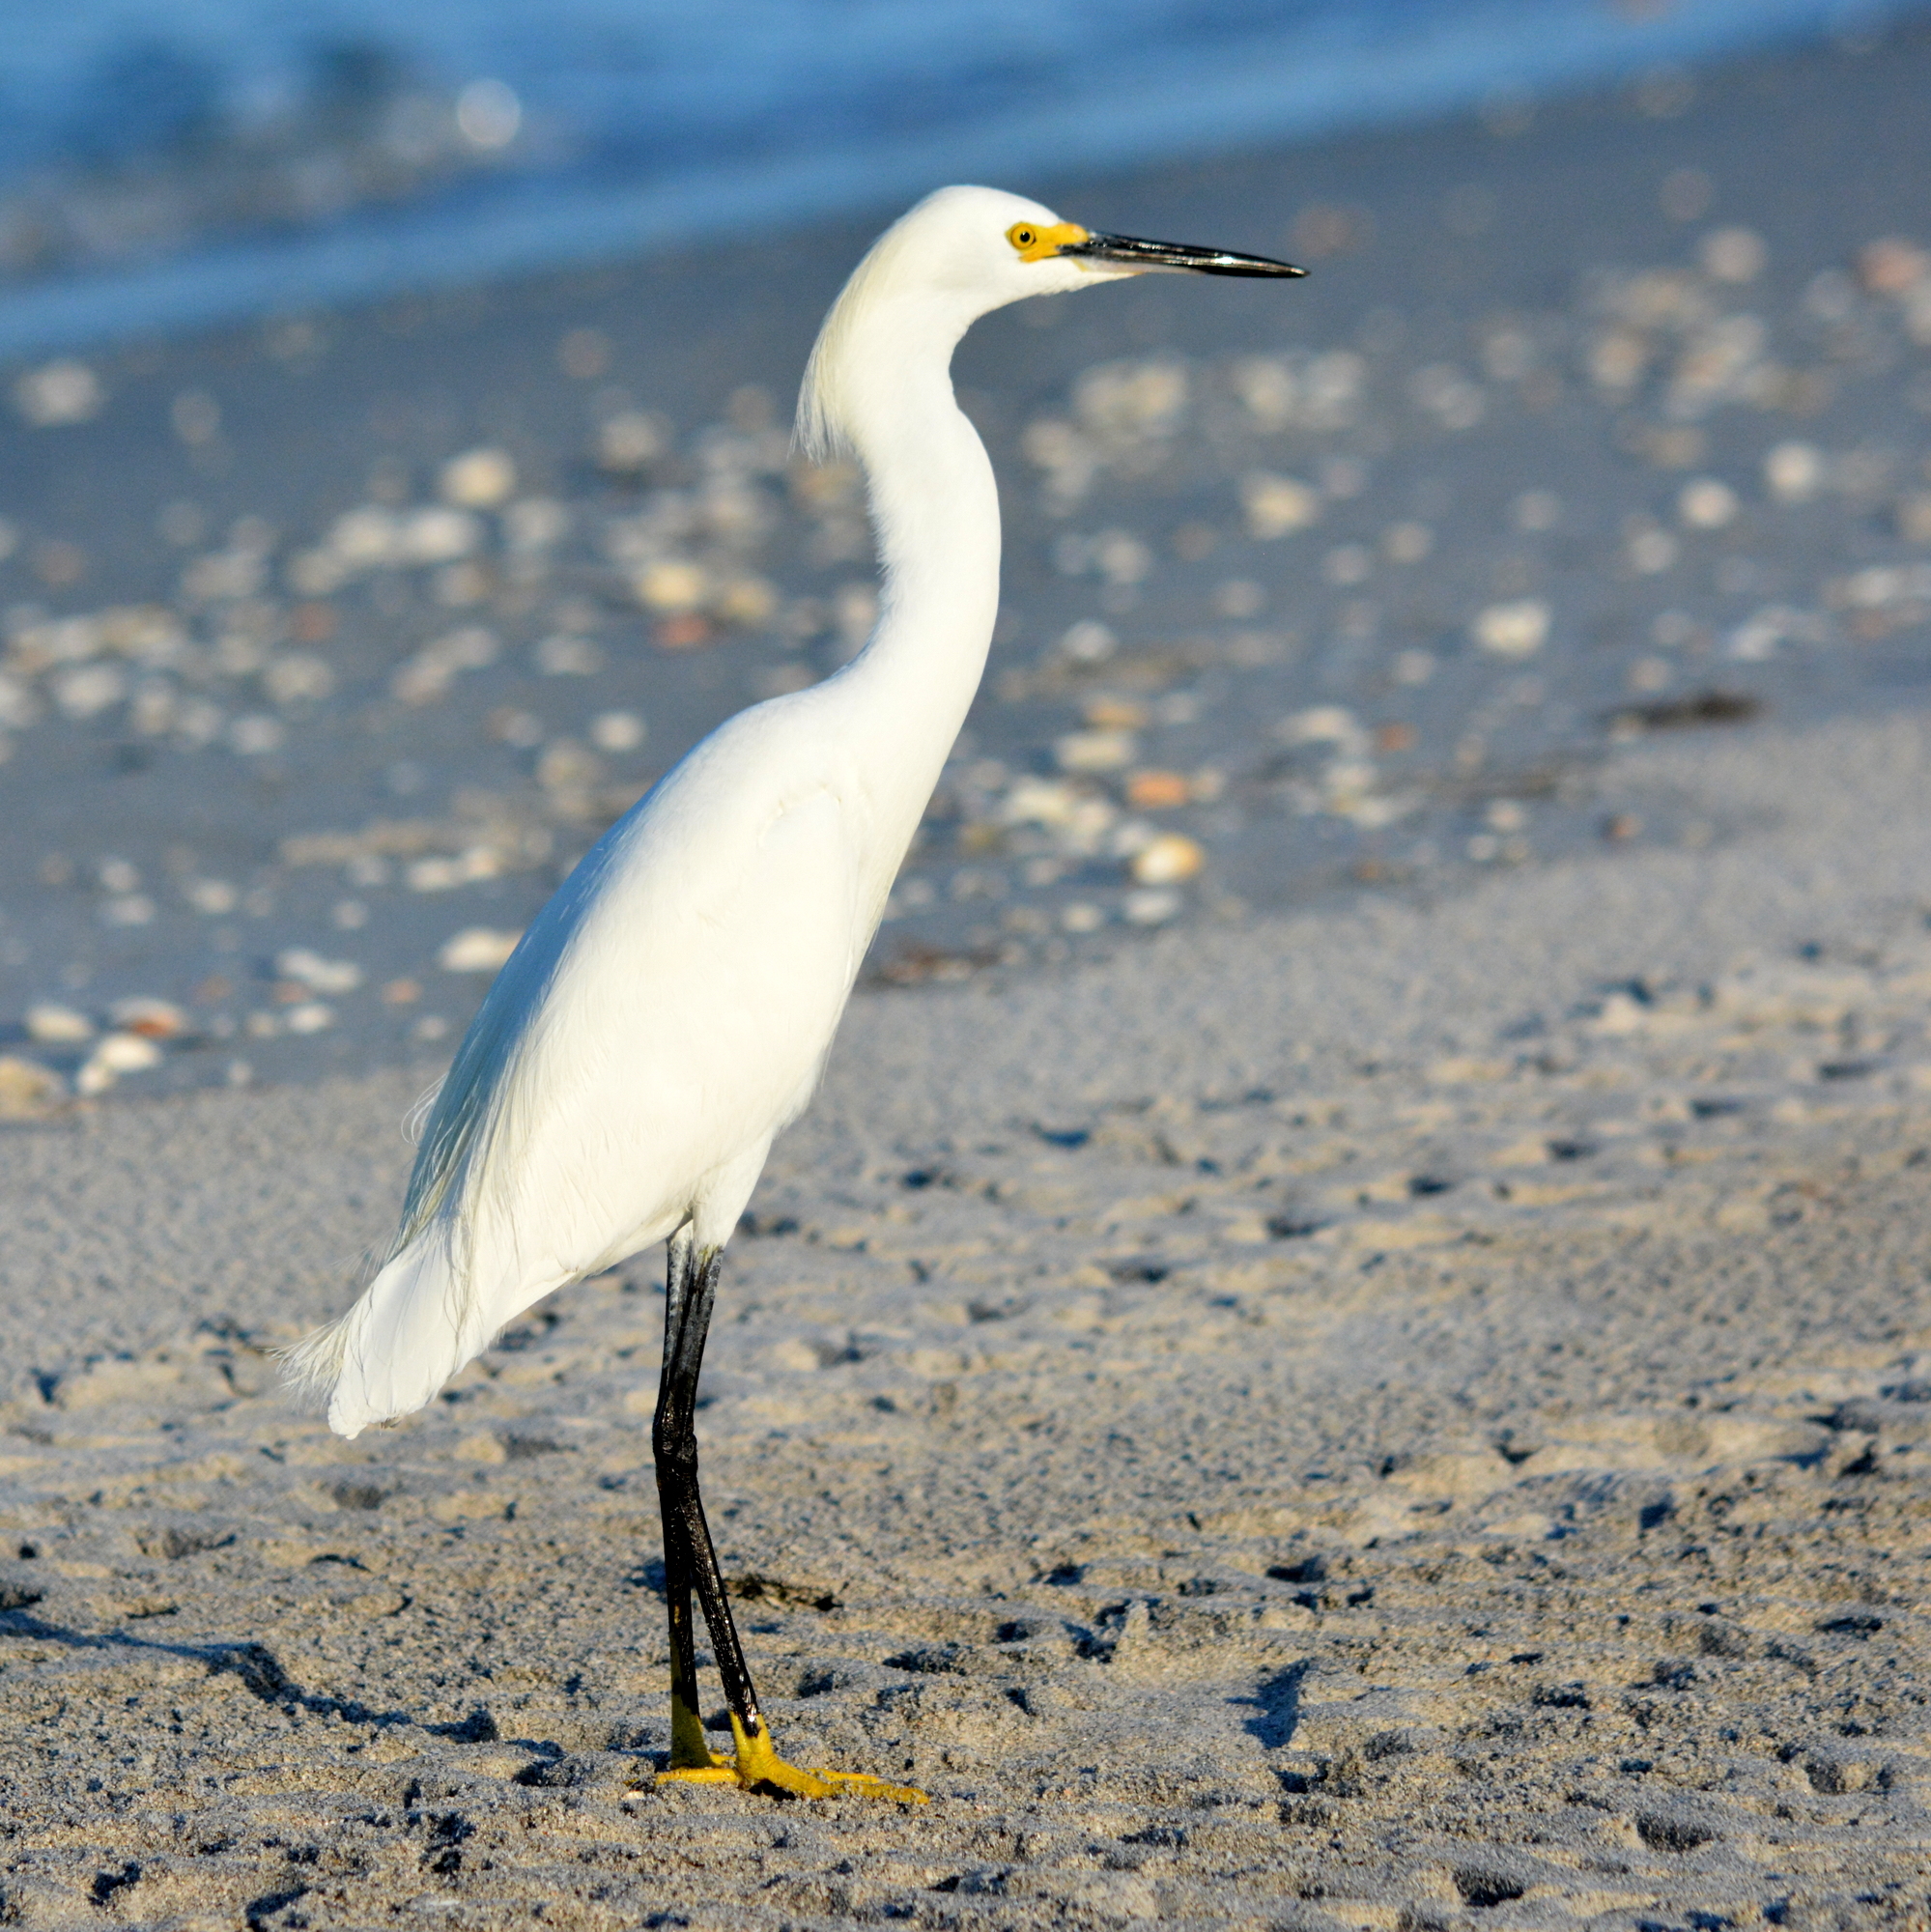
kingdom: Animalia
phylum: Chordata
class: Aves
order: Pelecaniformes
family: Ardeidae
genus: Egretta
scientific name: Egretta thula
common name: Snowy egret
